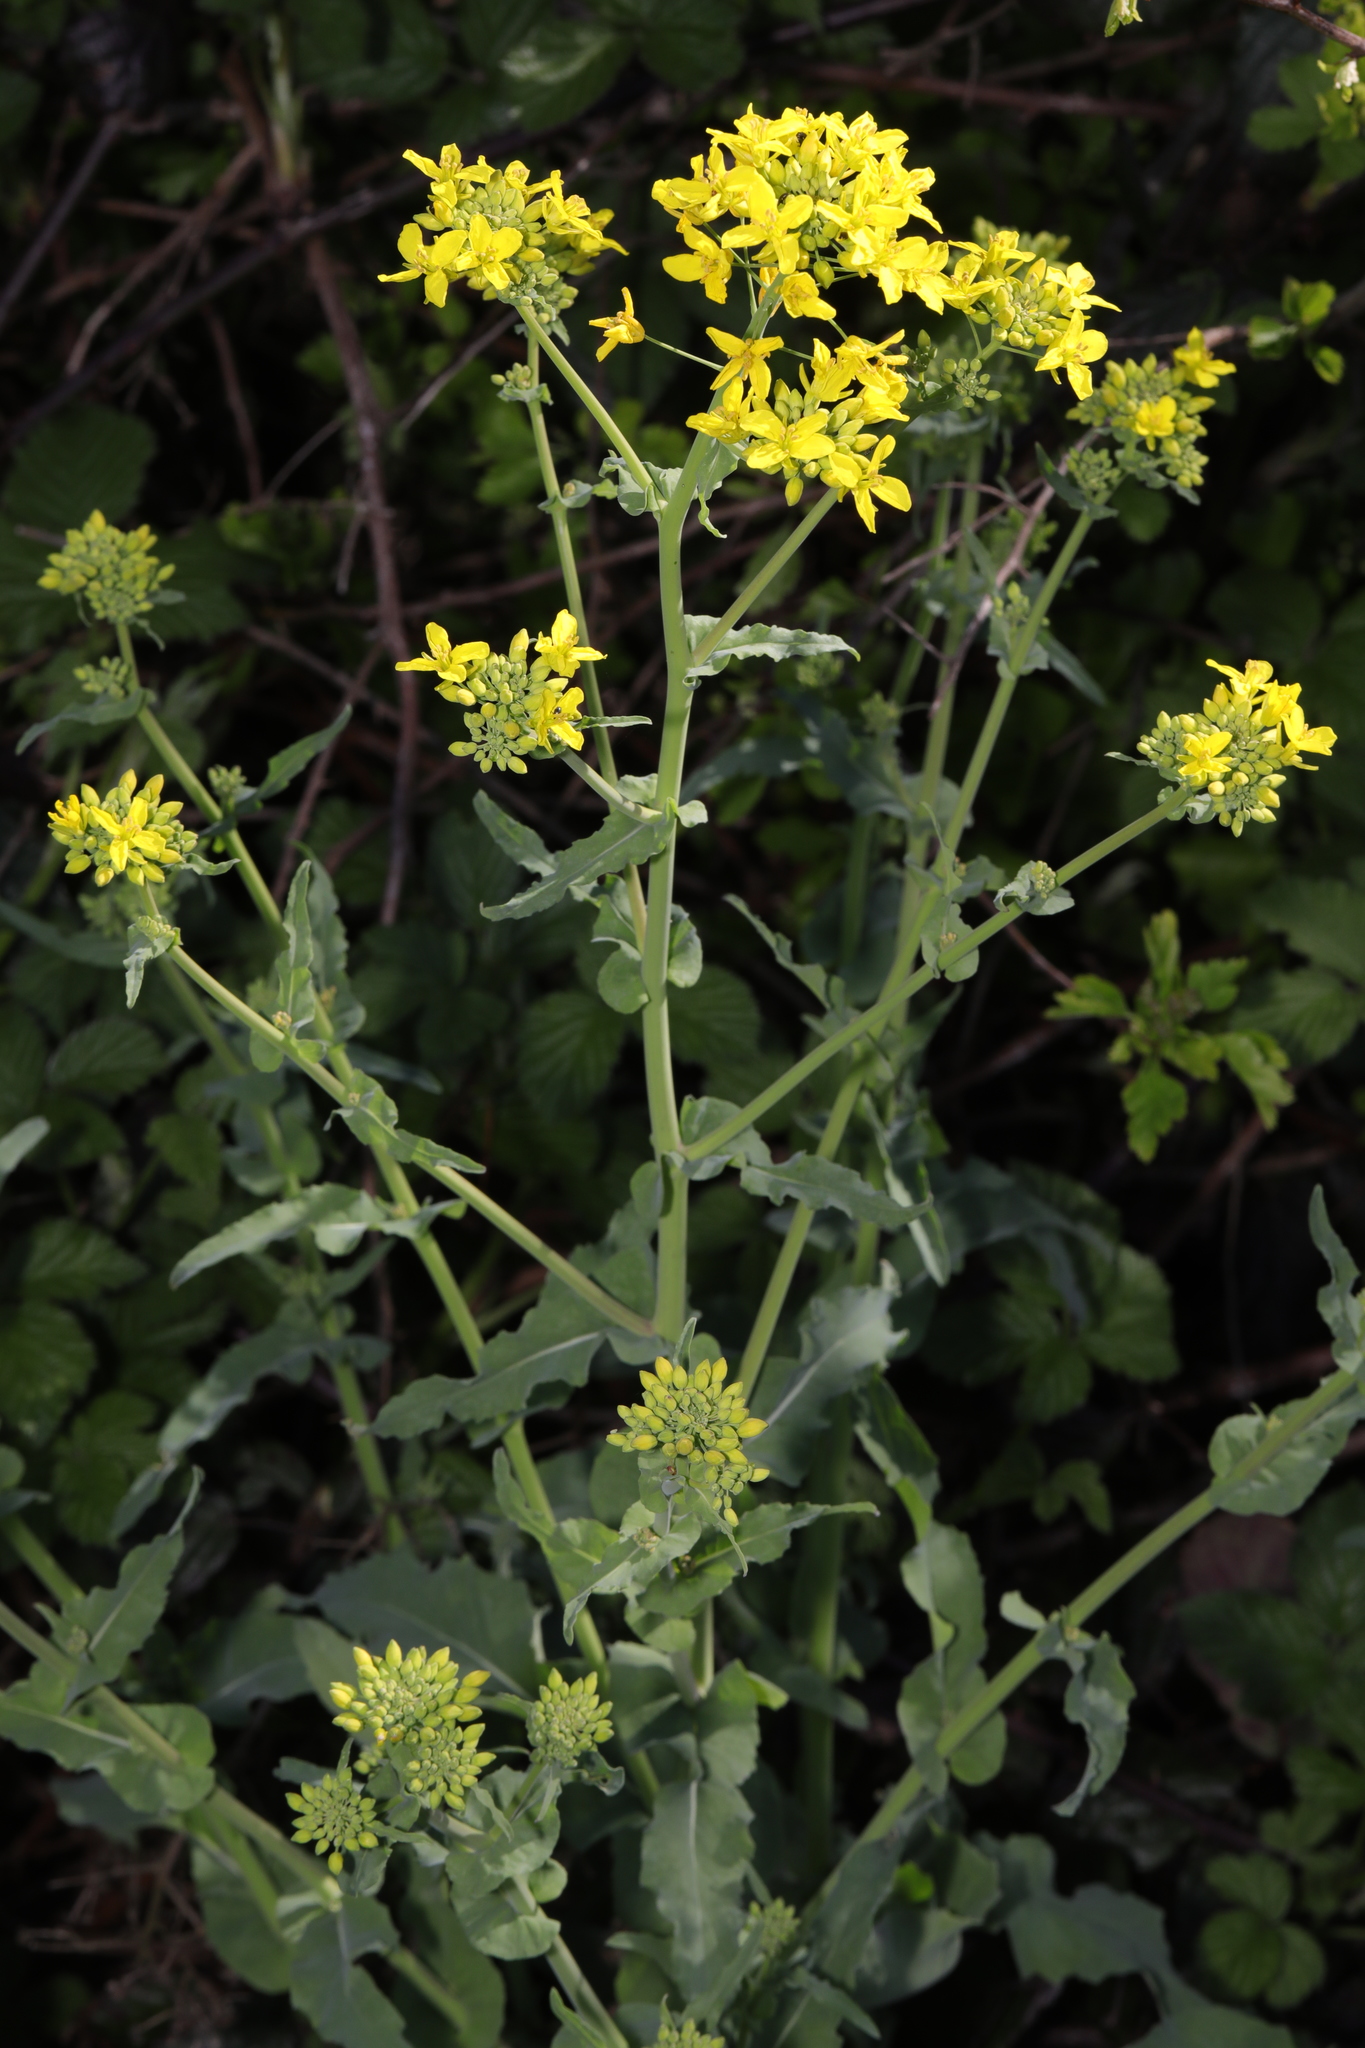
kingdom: Plantae
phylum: Tracheophyta
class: Magnoliopsida
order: Brassicales
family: Brassicaceae
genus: Brassica
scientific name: Brassica rapa
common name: Field mustard
